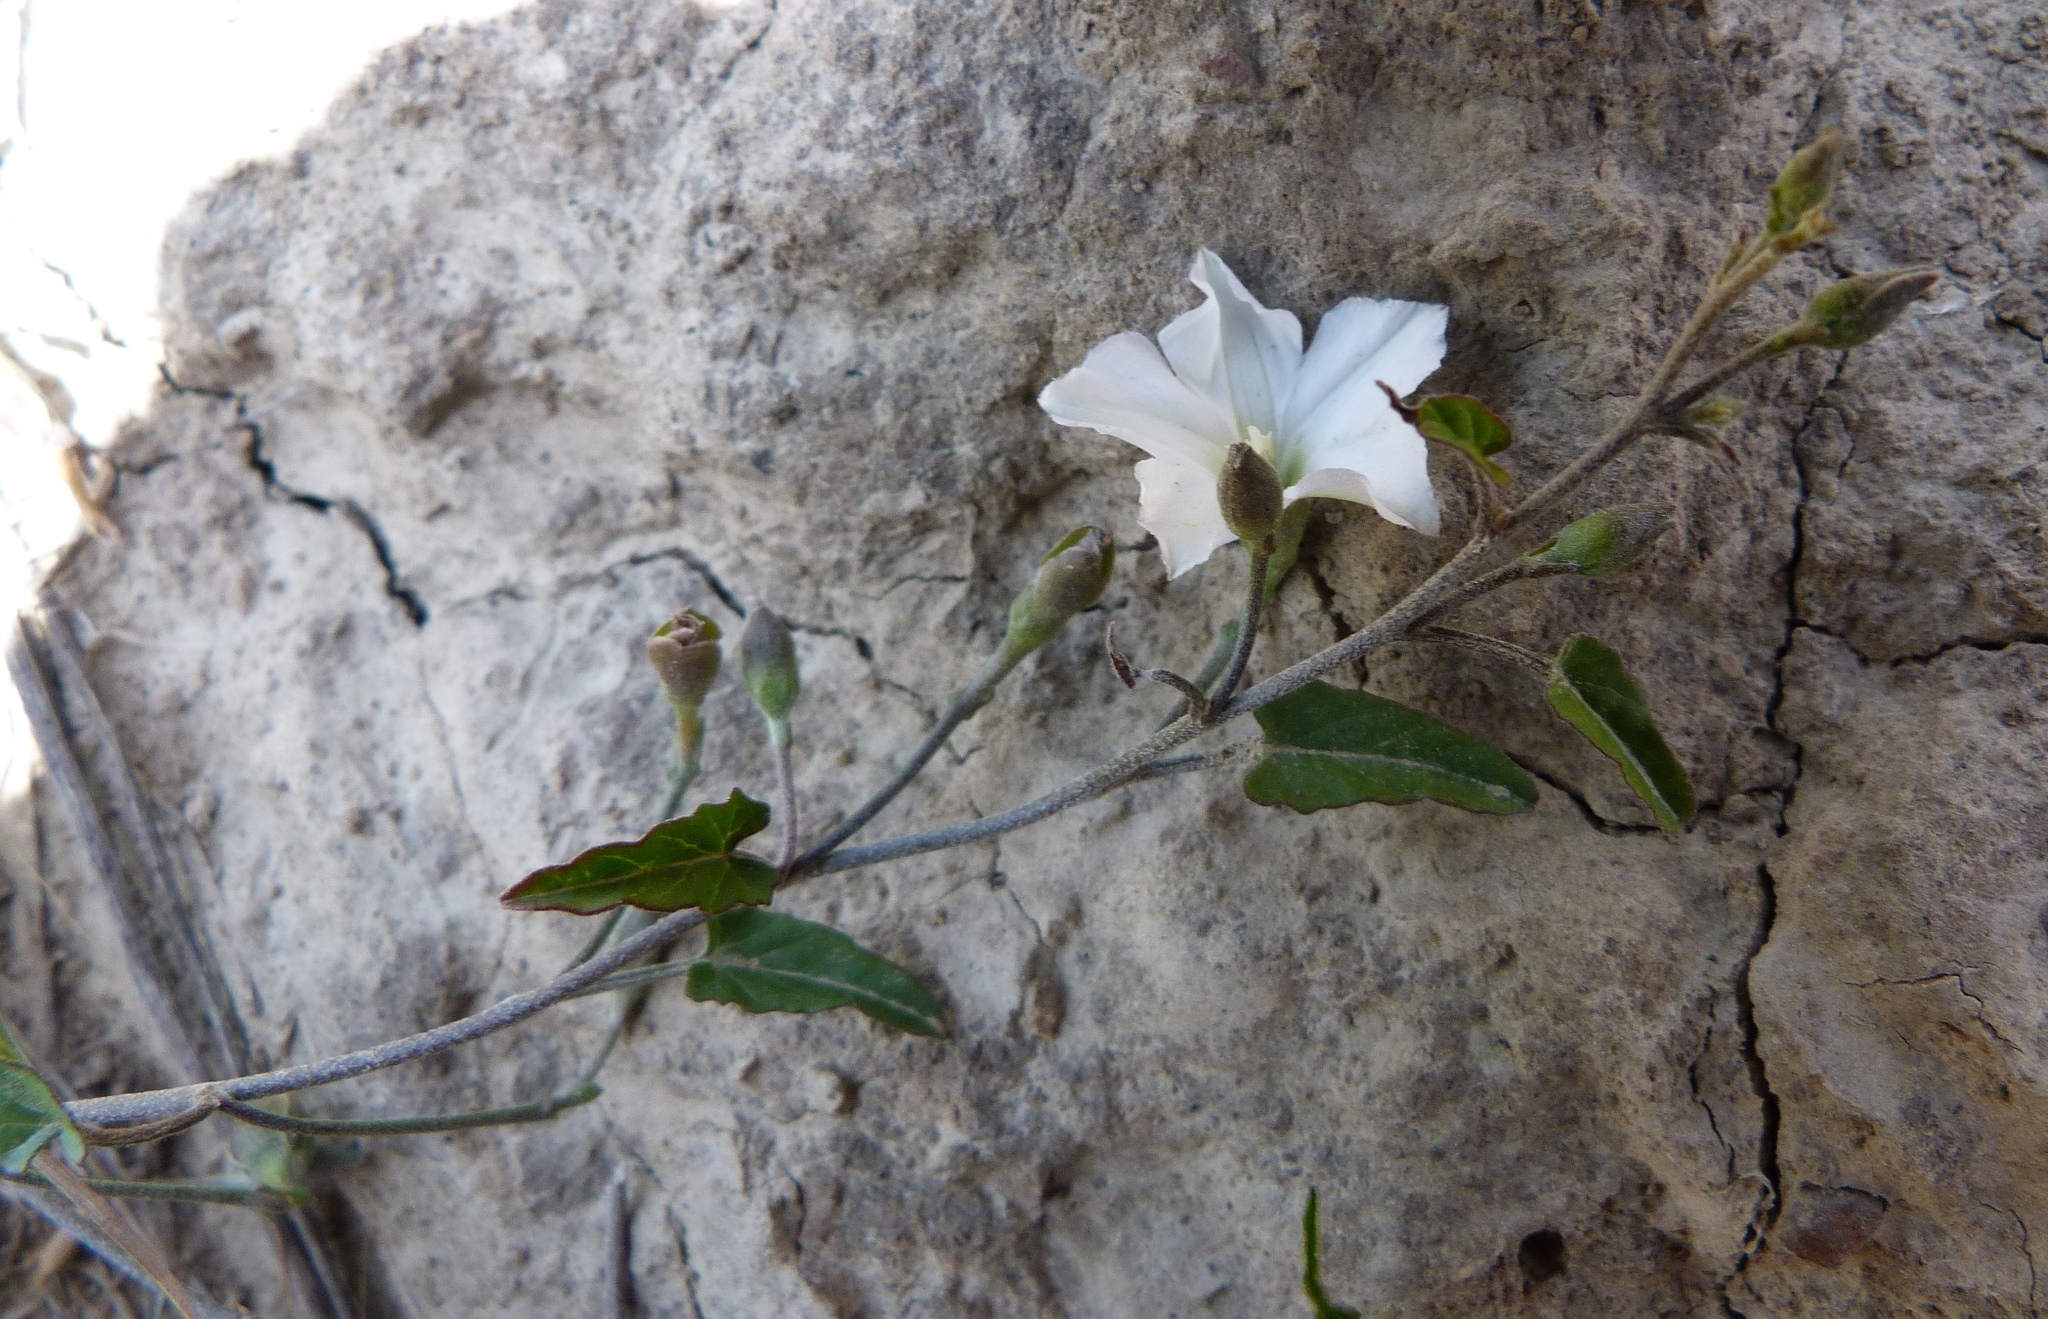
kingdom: Plantae
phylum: Tracheophyta
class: Magnoliopsida
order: Solanales
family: Convolvulaceae
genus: Convolvulus
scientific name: Convolvulus waitaha
